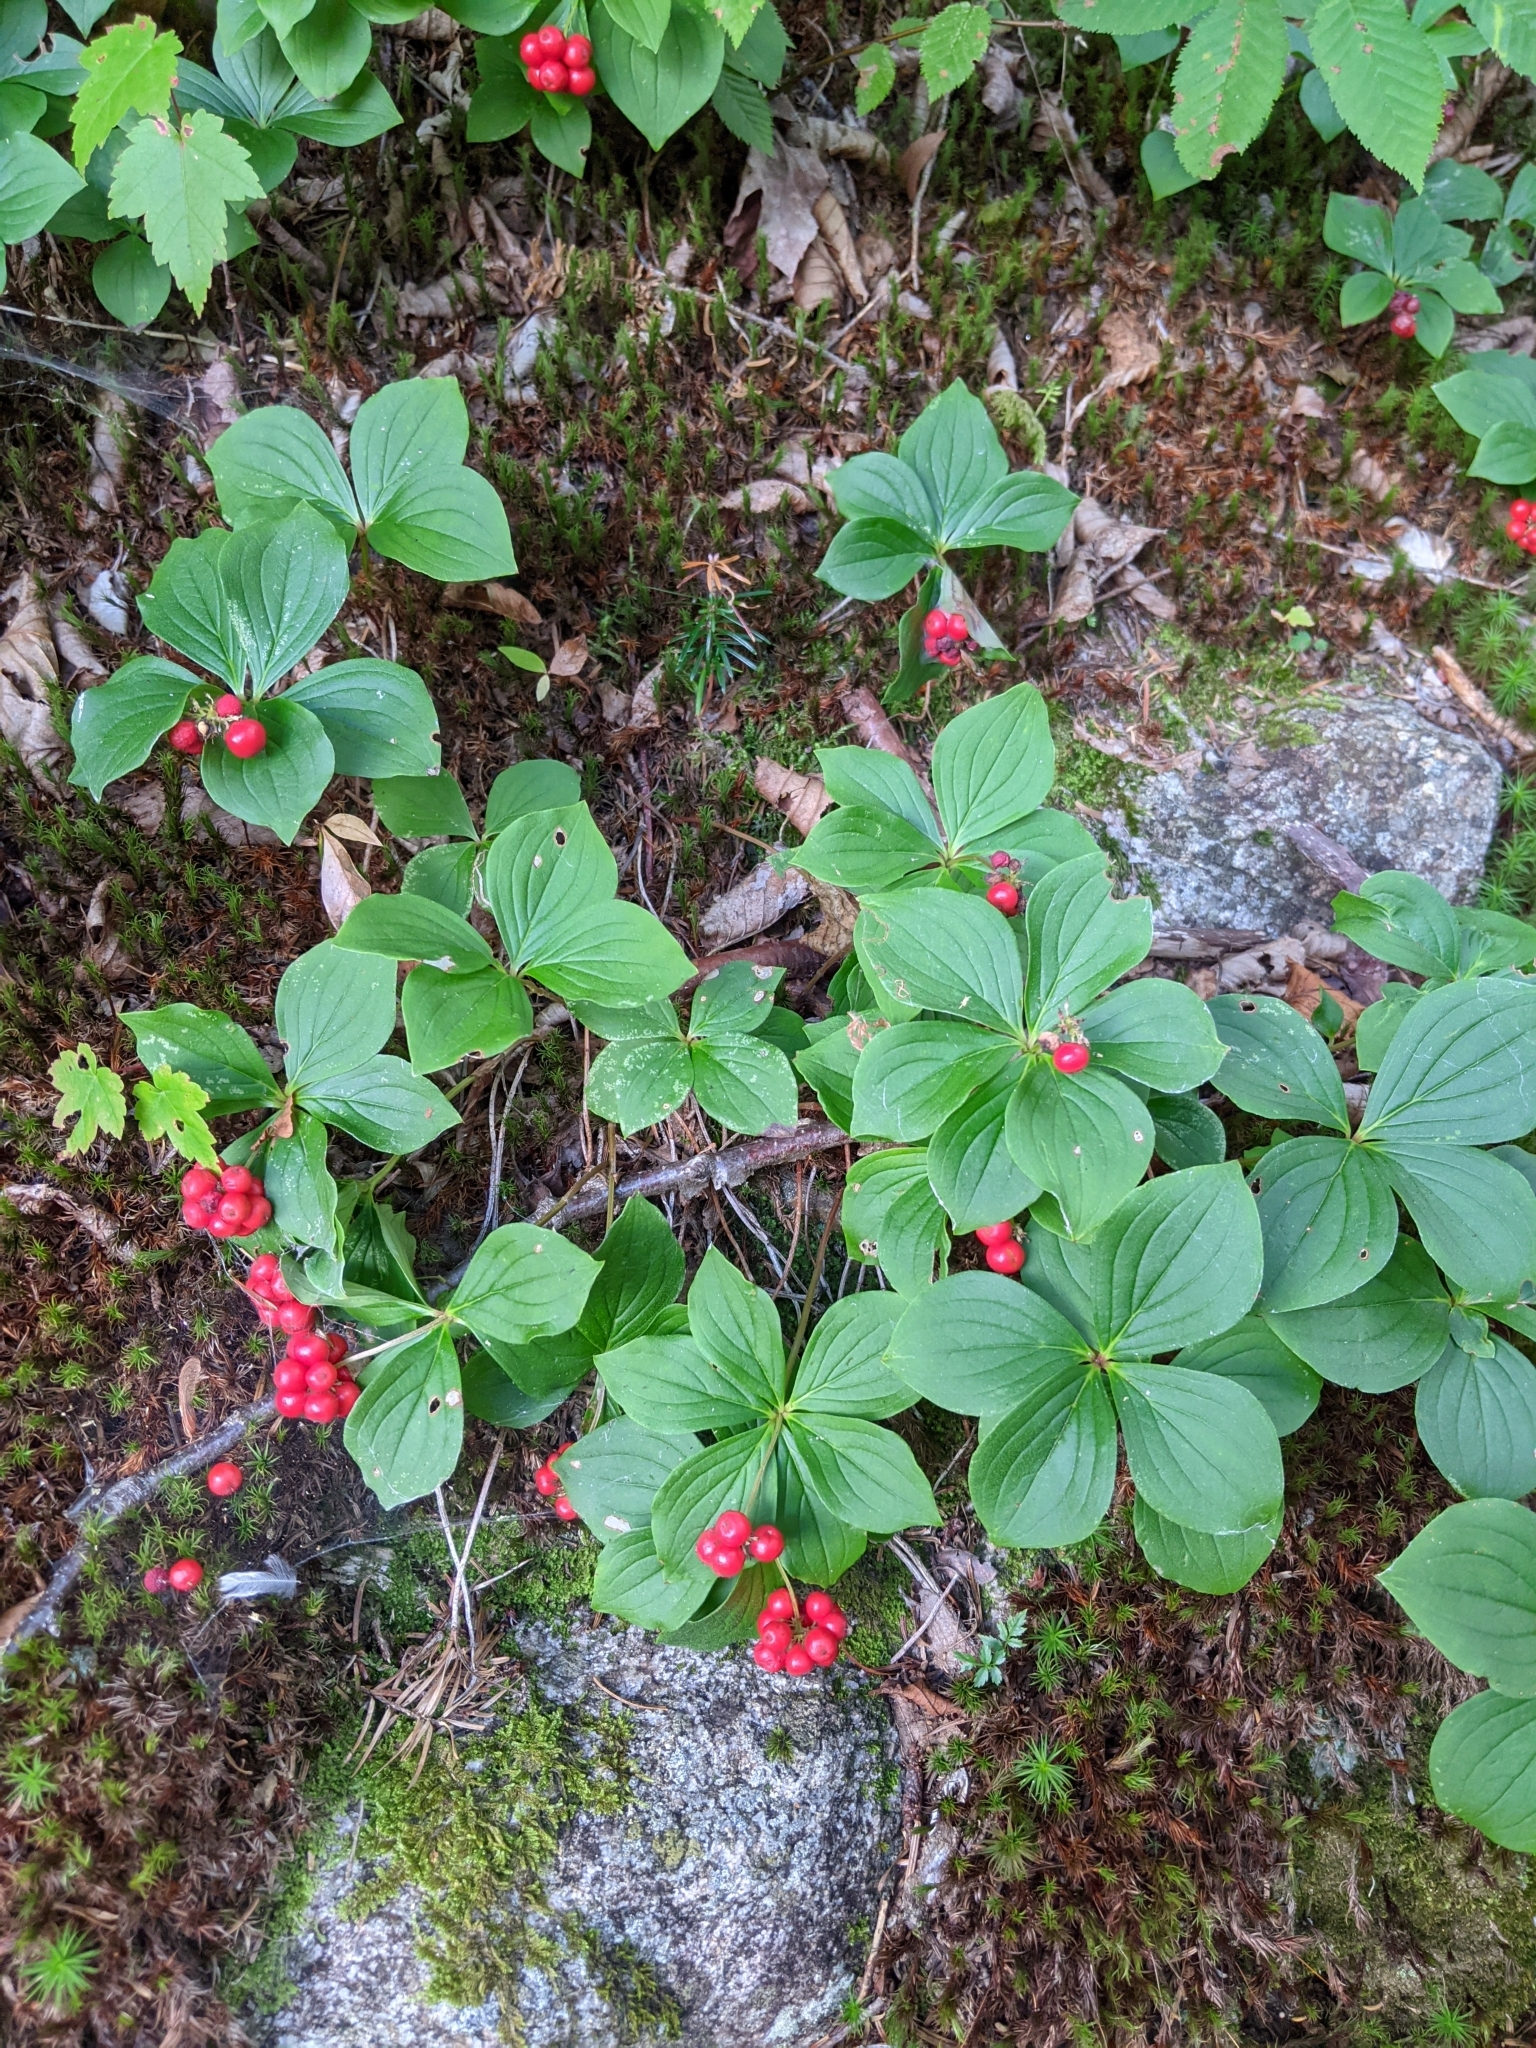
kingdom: Plantae
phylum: Tracheophyta
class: Magnoliopsida
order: Cornales
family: Cornaceae
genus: Cornus
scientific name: Cornus canadensis
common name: Creeping dogwood
